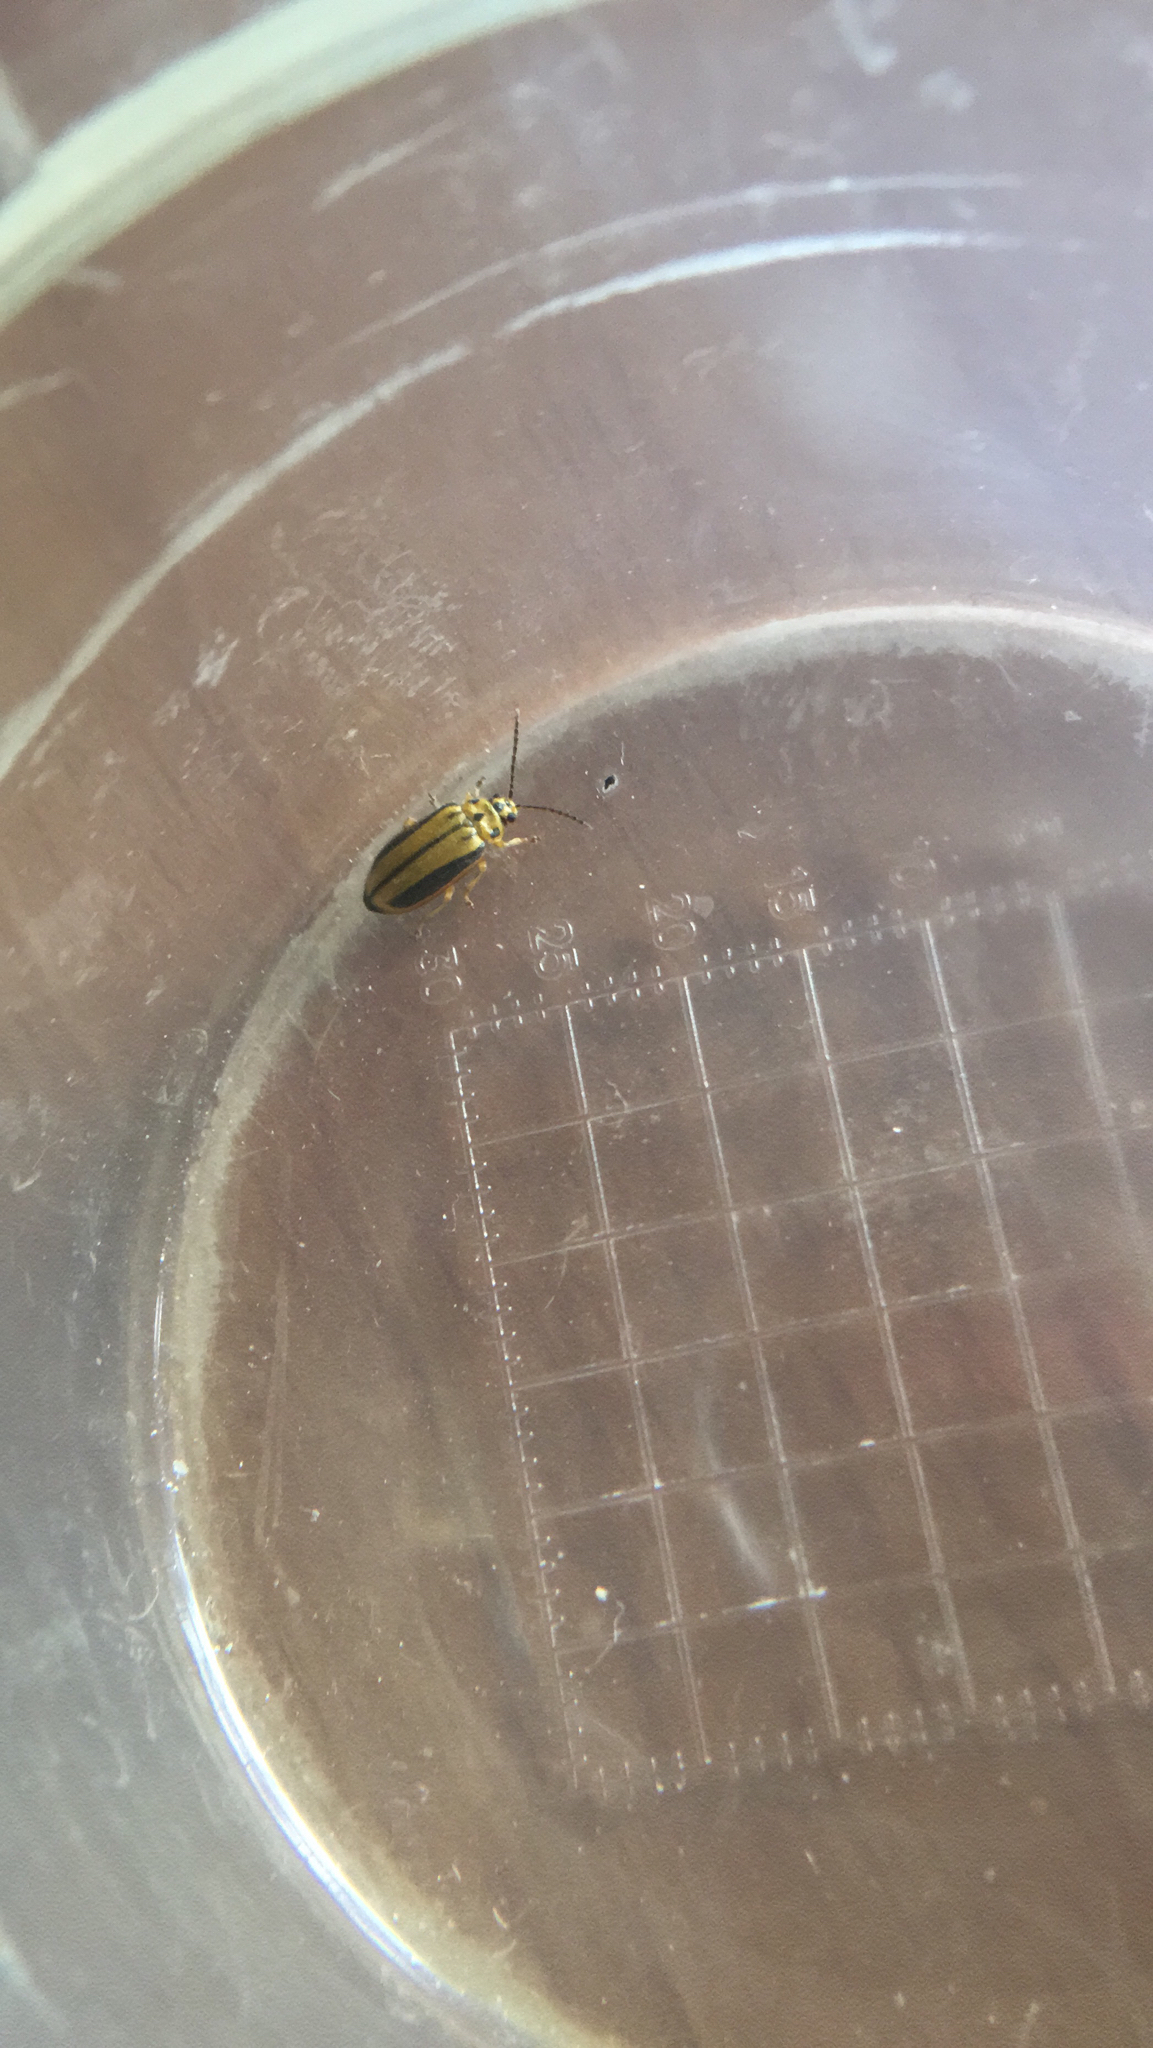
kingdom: Animalia
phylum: Arthropoda
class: Insecta
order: Coleoptera
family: Chrysomelidae
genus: Xanthogaleruca
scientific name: Xanthogaleruca luteola
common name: Elm leaf beetle
